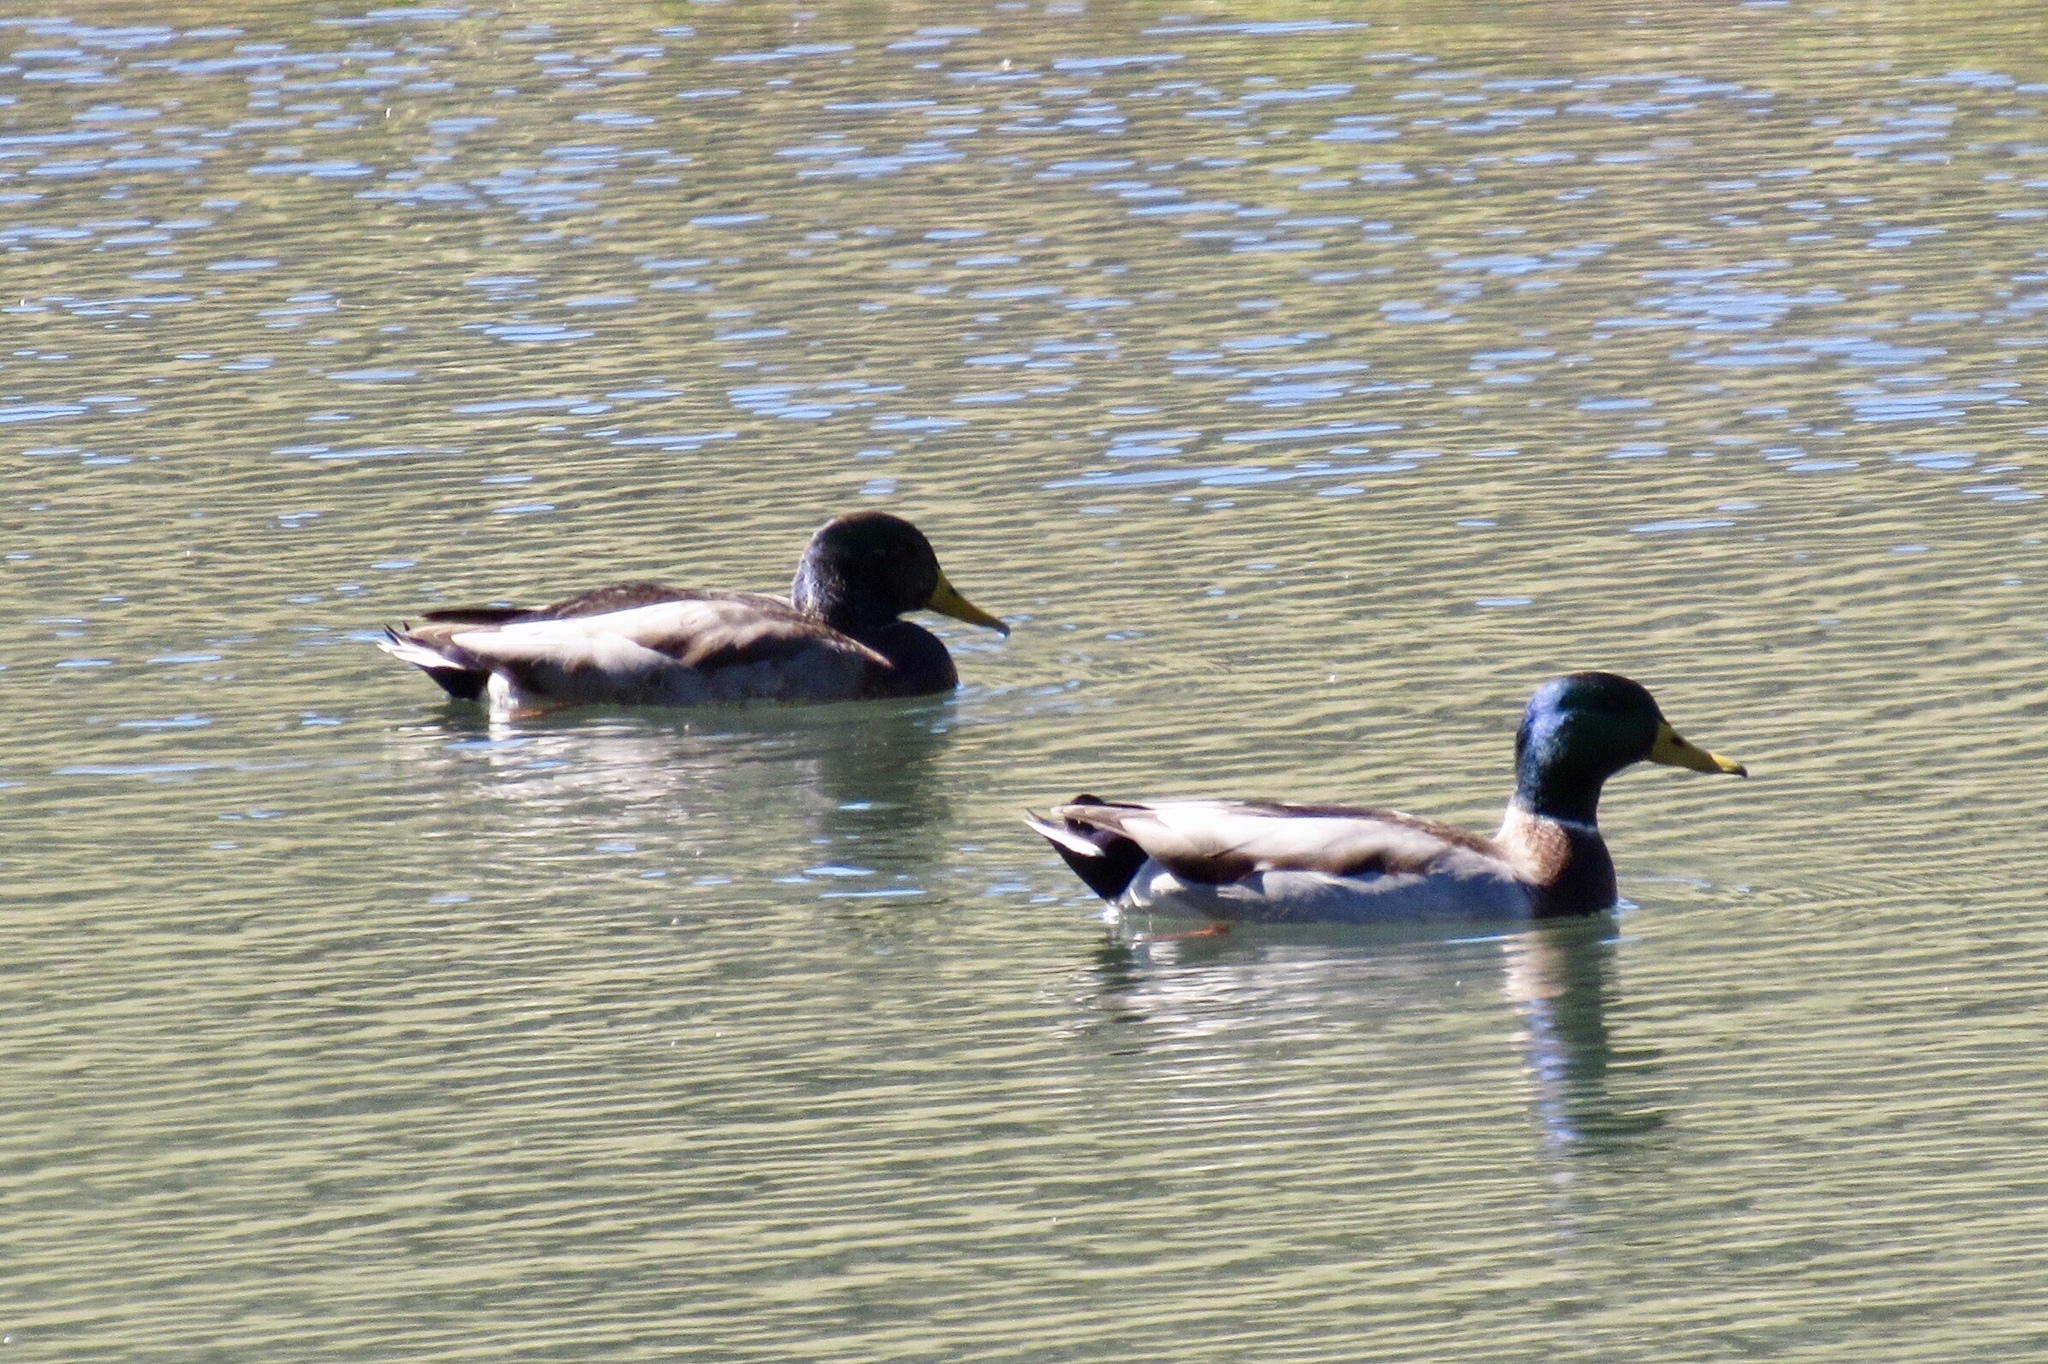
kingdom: Animalia
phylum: Chordata
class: Aves
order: Anseriformes
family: Anatidae
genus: Anas
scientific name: Anas platyrhynchos
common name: Mallard
